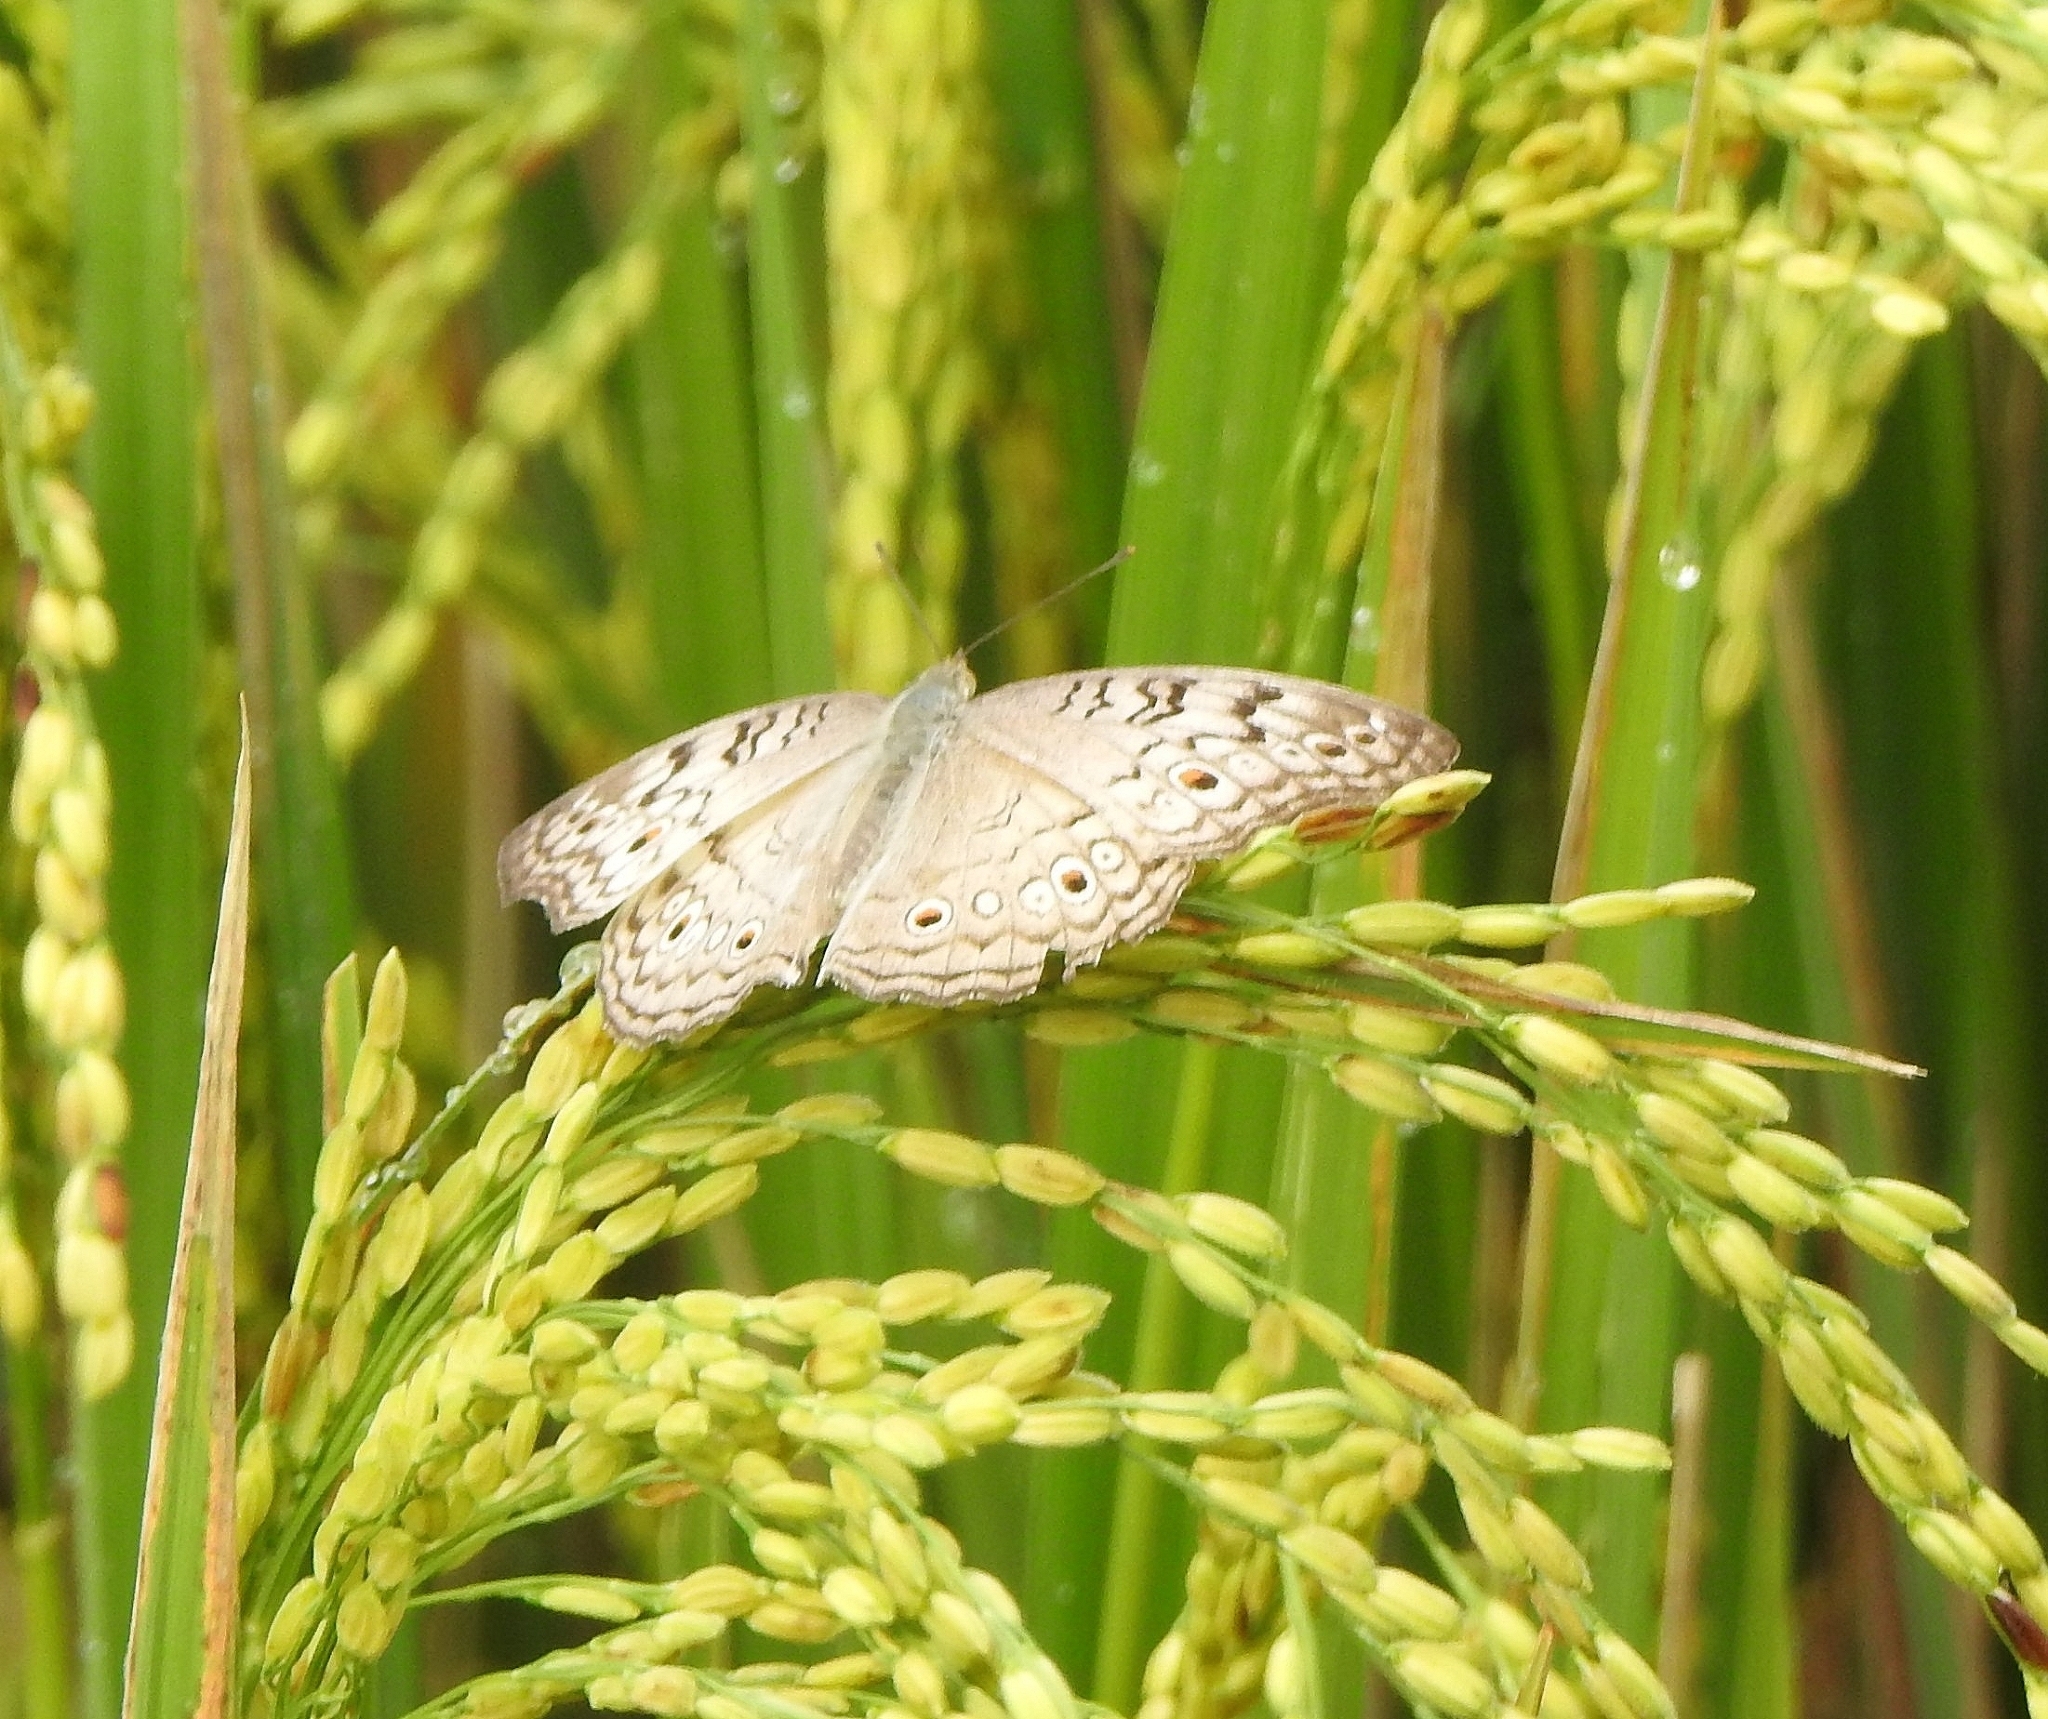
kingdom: Animalia
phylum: Arthropoda
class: Insecta
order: Lepidoptera
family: Nymphalidae
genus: Junonia
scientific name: Junonia atlites
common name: Grey pansy
